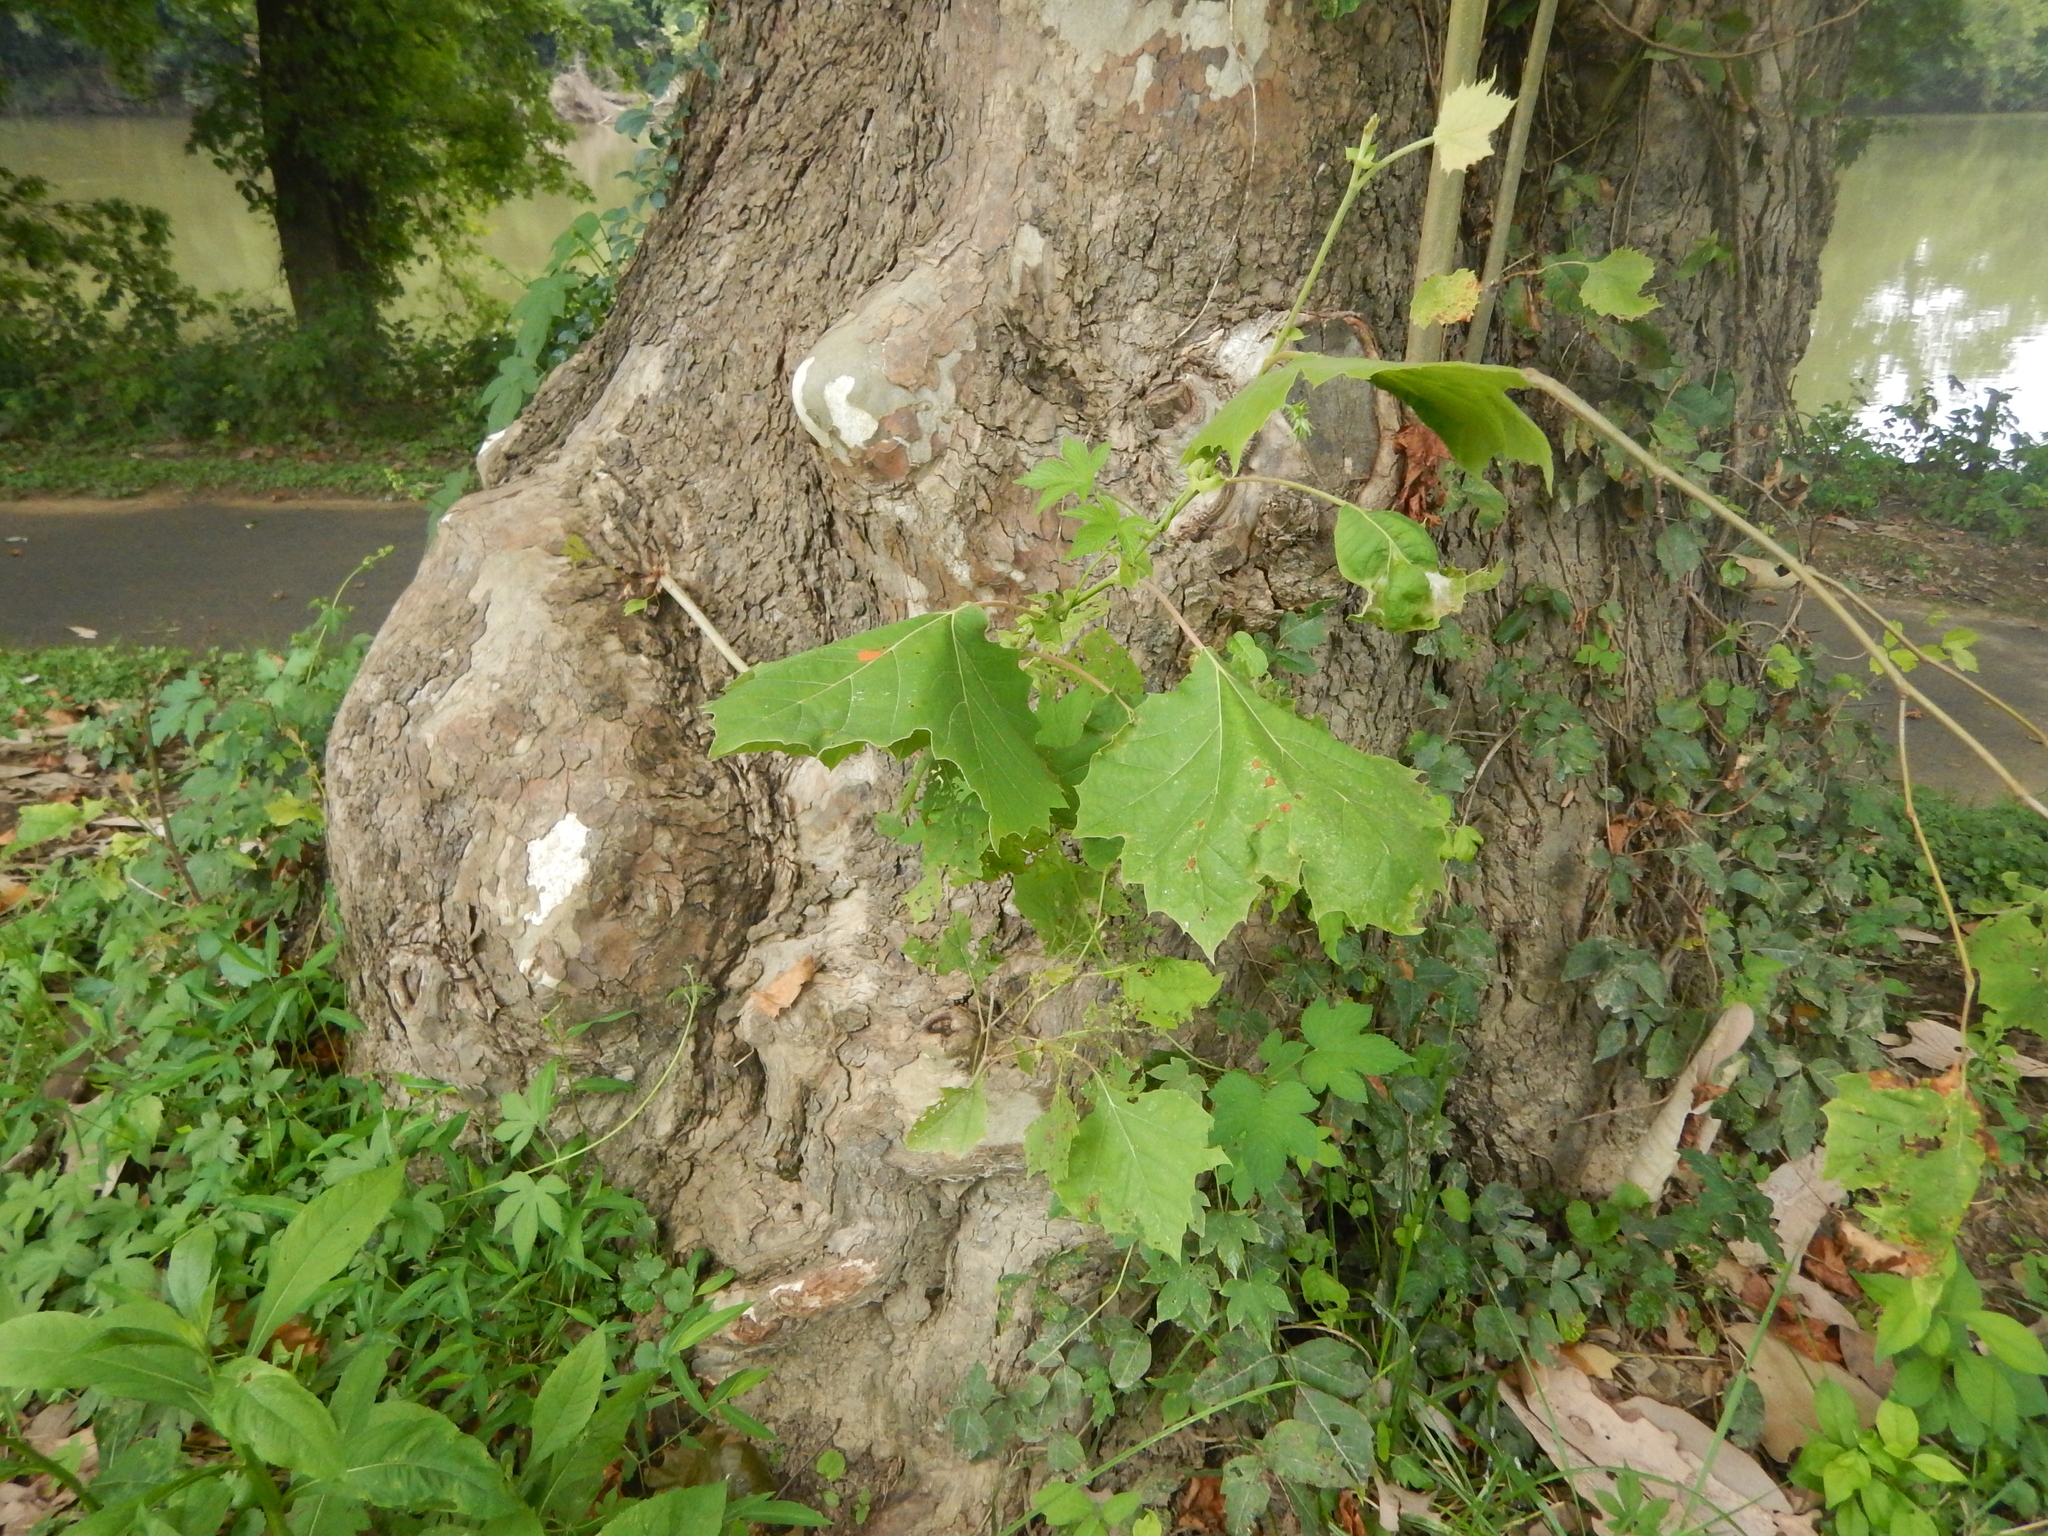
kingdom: Plantae
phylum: Tracheophyta
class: Magnoliopsida
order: Proteales
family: Platanaceae
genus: Platanus
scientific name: Platanus occidentalis
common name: American sycamore
